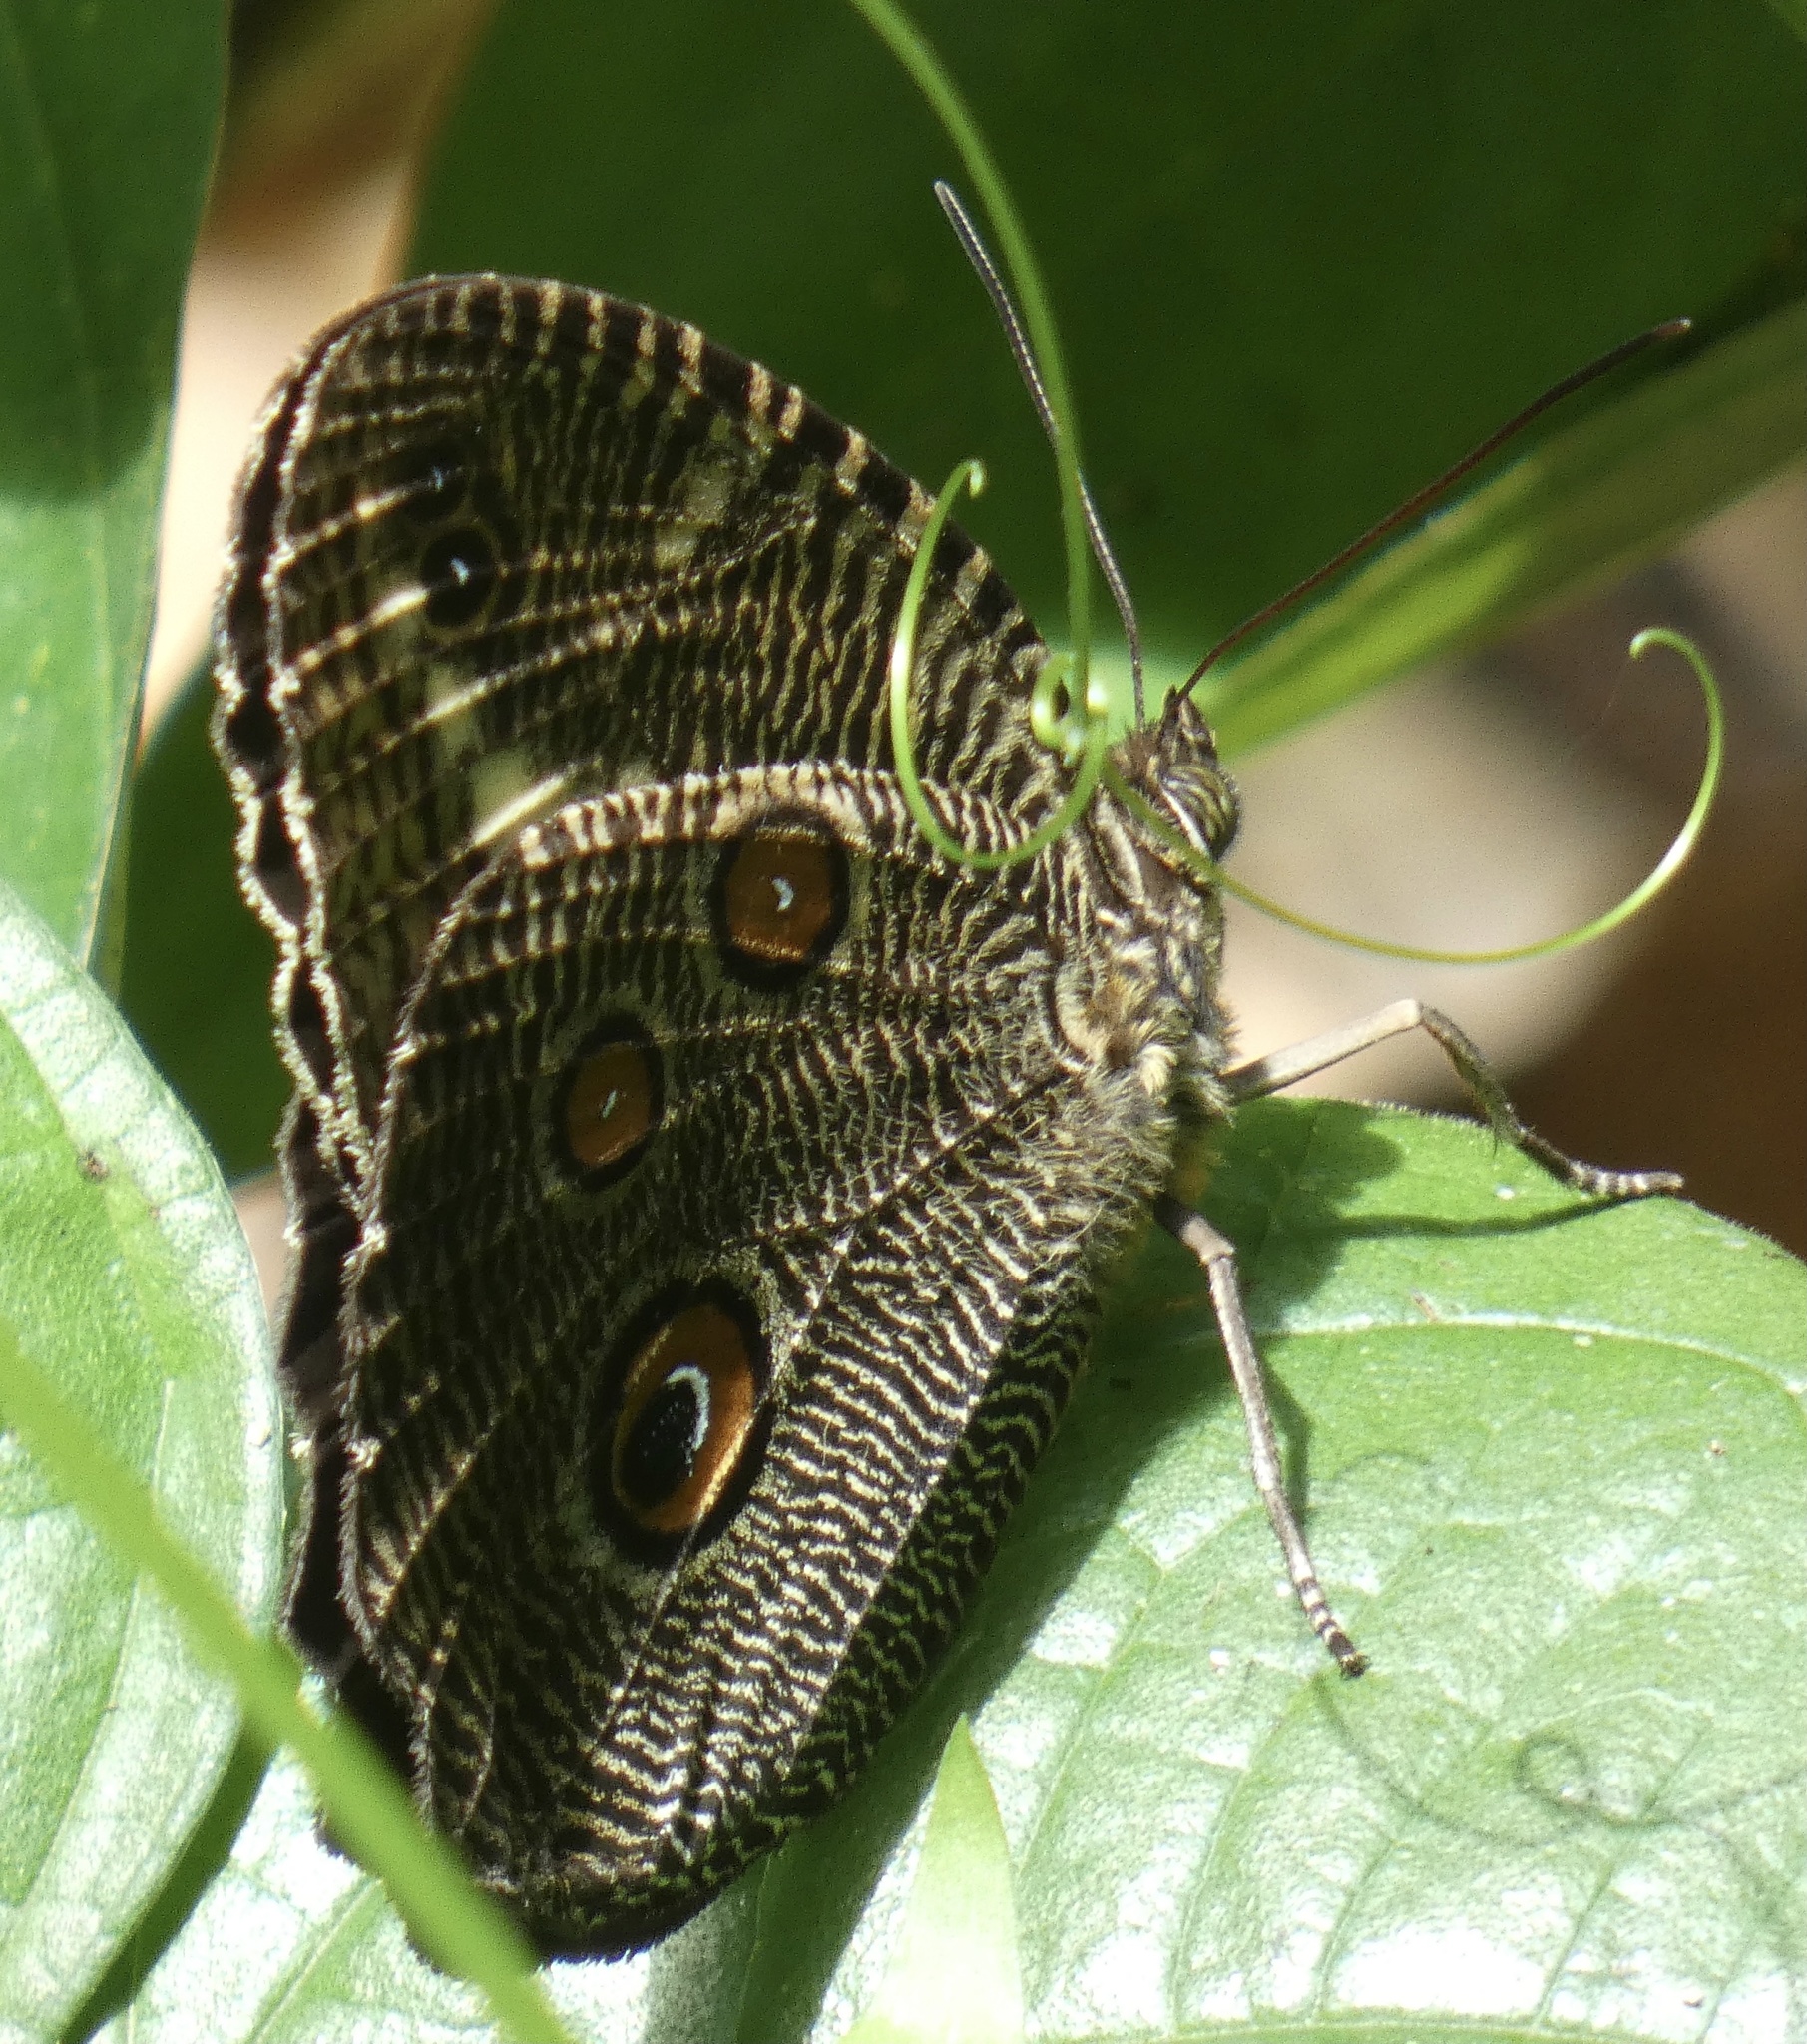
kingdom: Animalia
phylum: Arthropoda
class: Insecta
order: Lepidoptera
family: Nymphalidae
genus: Dasyophthalma
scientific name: Dasyophthalma creusa
